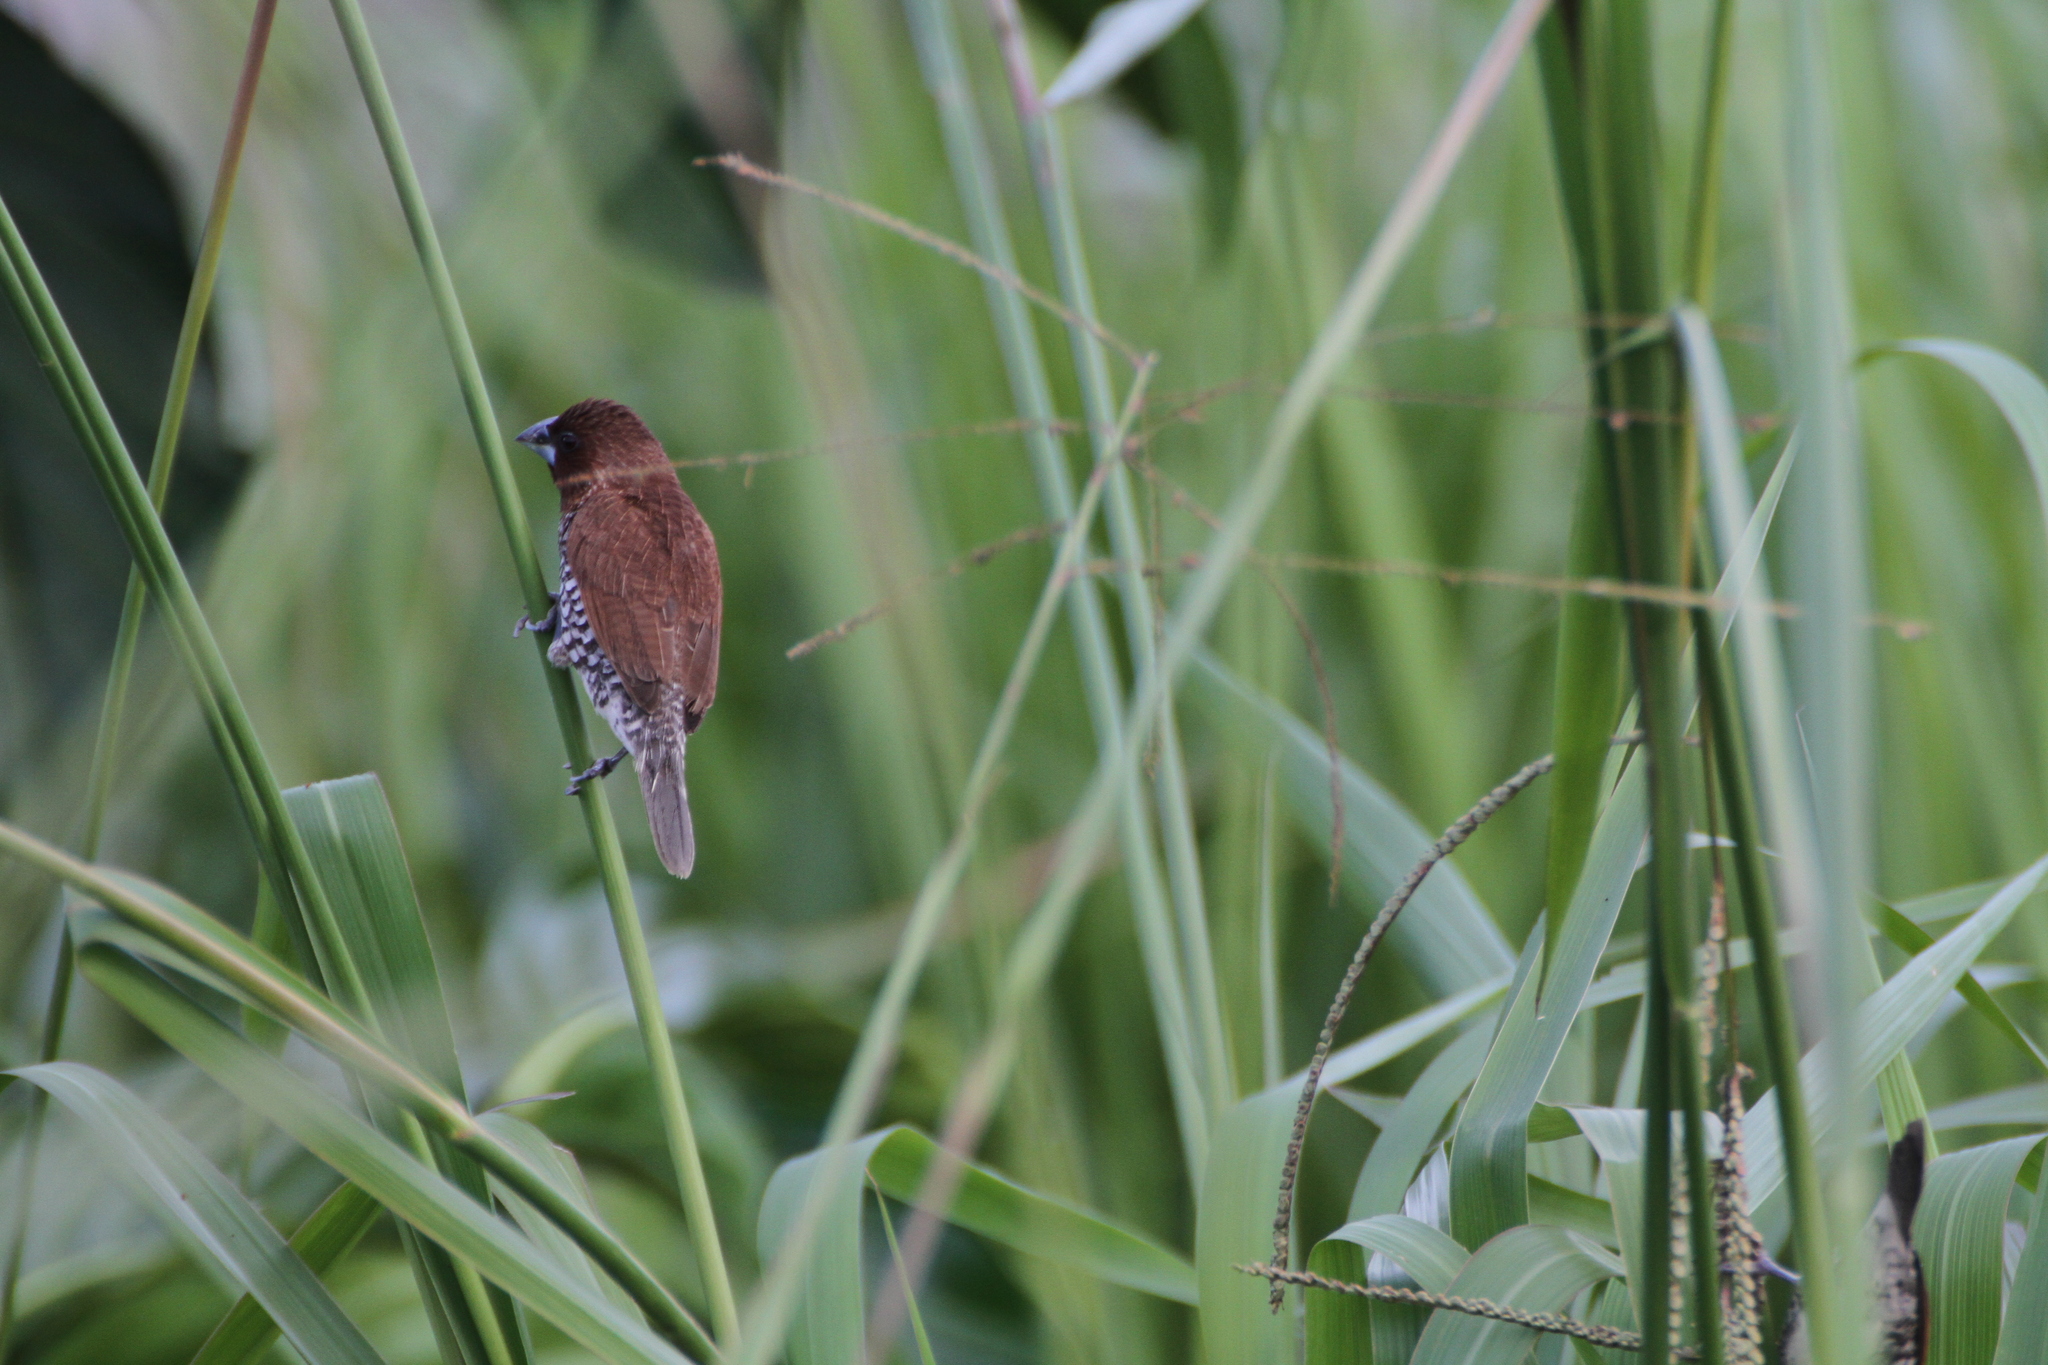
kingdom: Animalia
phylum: Chordata
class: Aves
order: Passeriformes
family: Estrildidae
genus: Lonchura
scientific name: Lonchura punctulata
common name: Scaly-breasted munia
